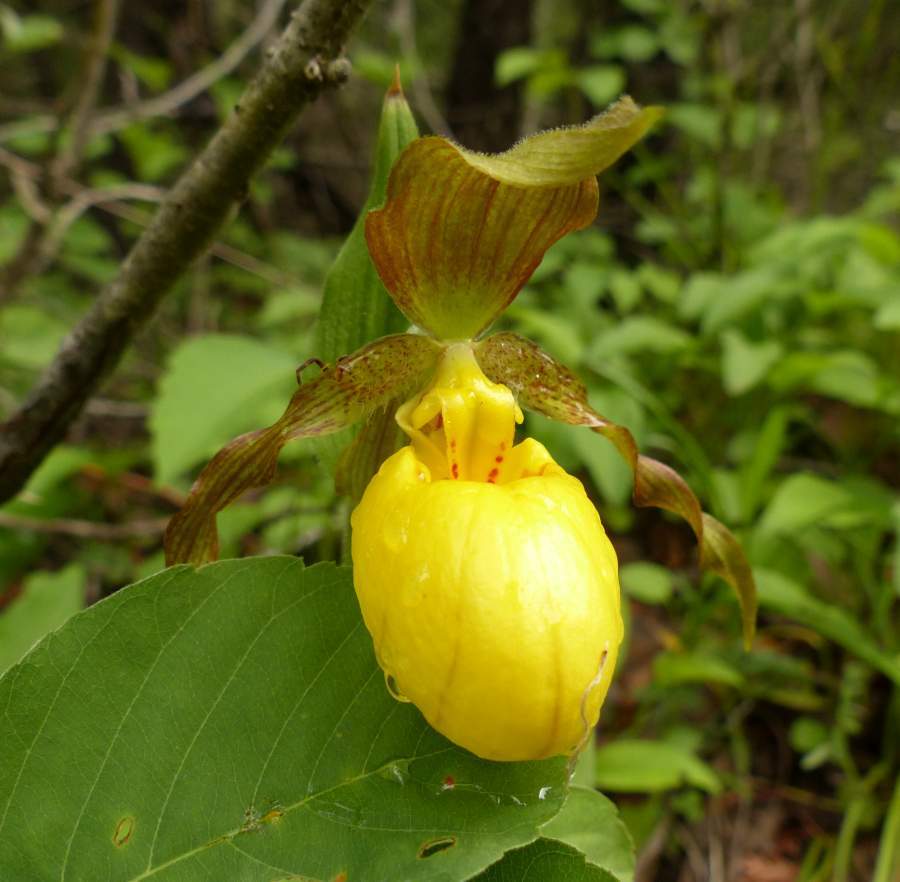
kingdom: Plantae
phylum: Tracheophyta
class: Liliopsida
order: Asparagales
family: Orchidaceae
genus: Cypripedium
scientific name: Cypripedium parviflorum
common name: American yellow lady's-slipper
